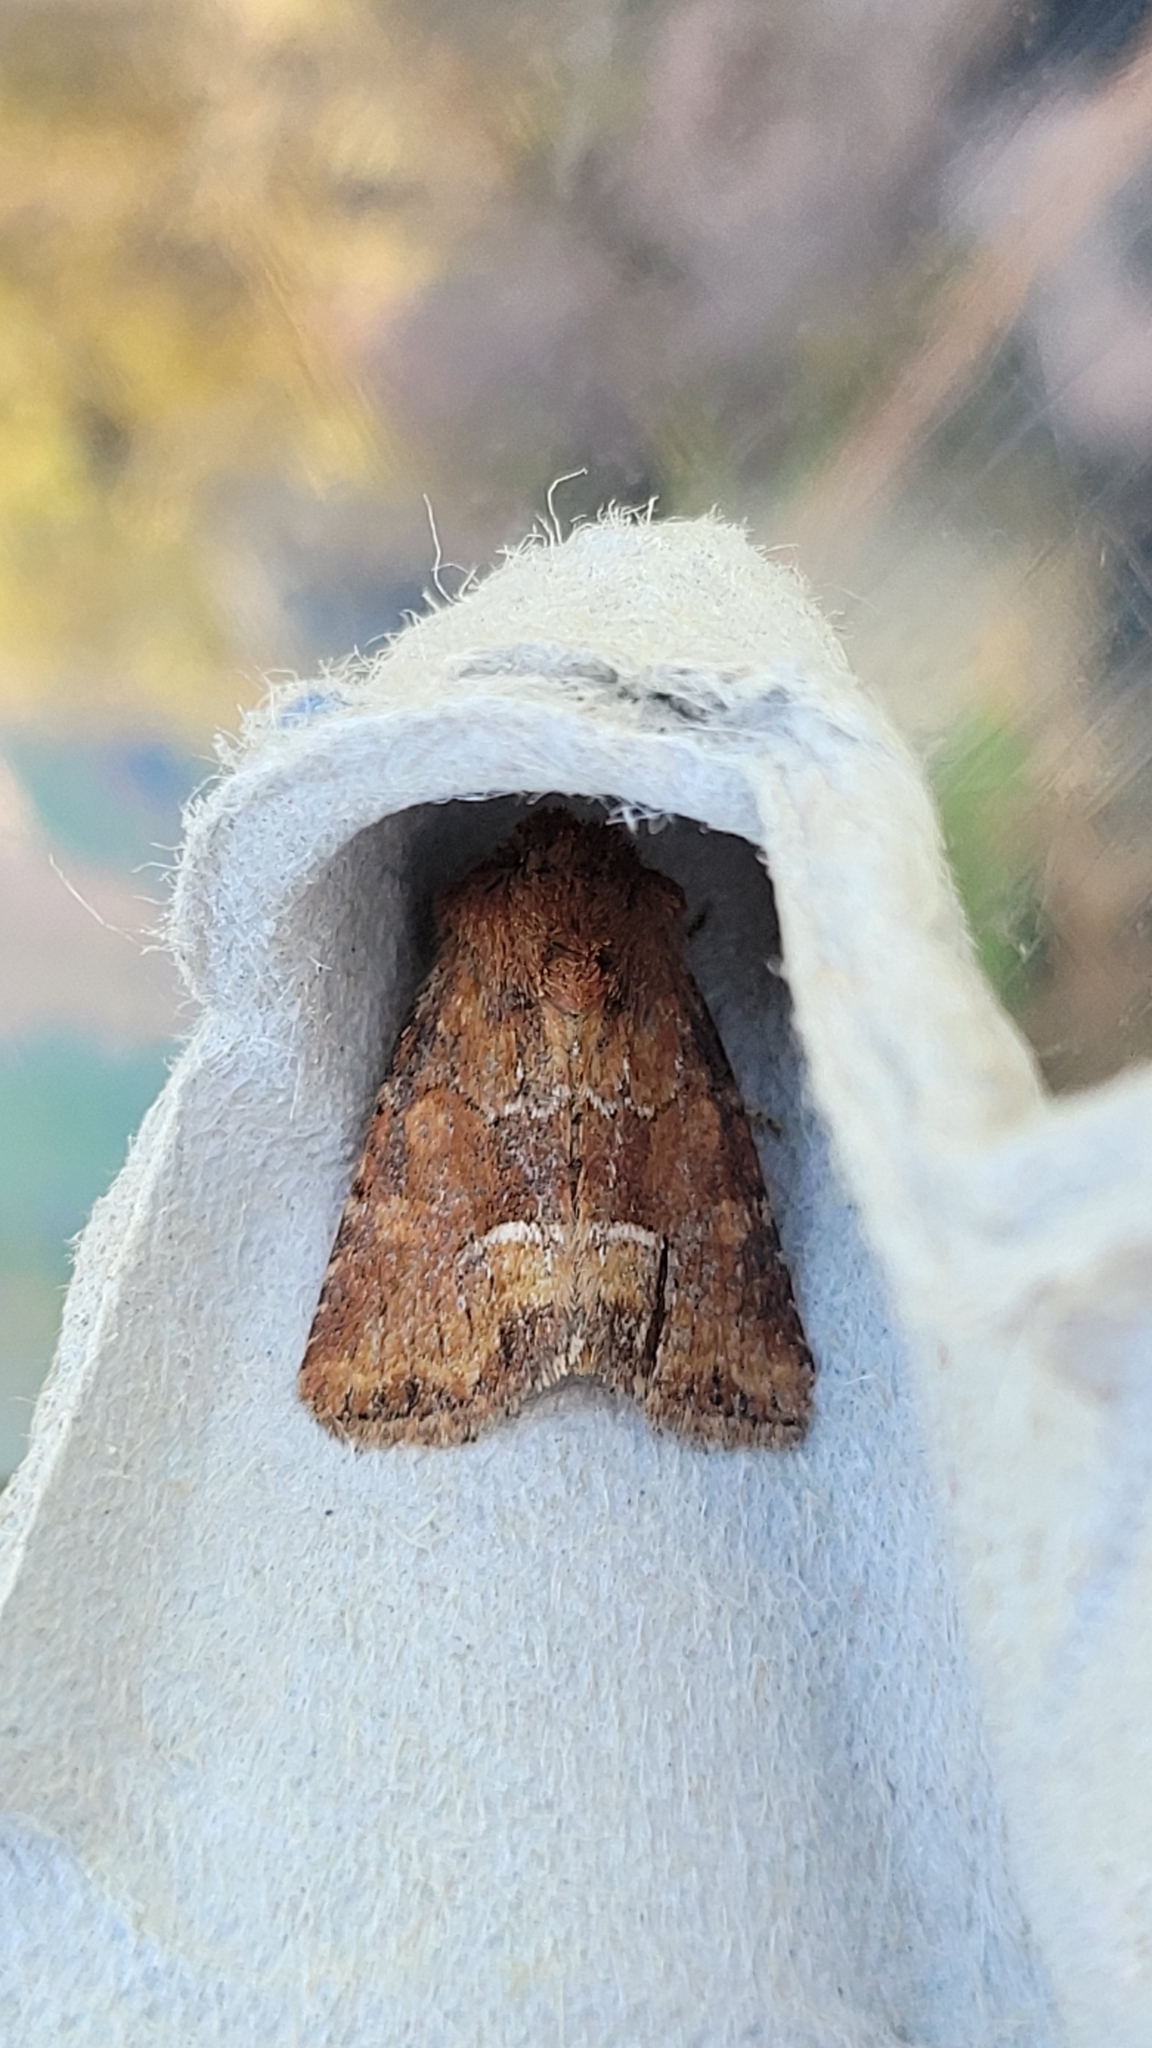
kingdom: Animalia
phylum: Arthropoda
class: Insecta
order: Lepidoptera
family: Noctuidae
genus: Oligia
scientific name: Oligia fasciuncula
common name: Middle-barred minor
